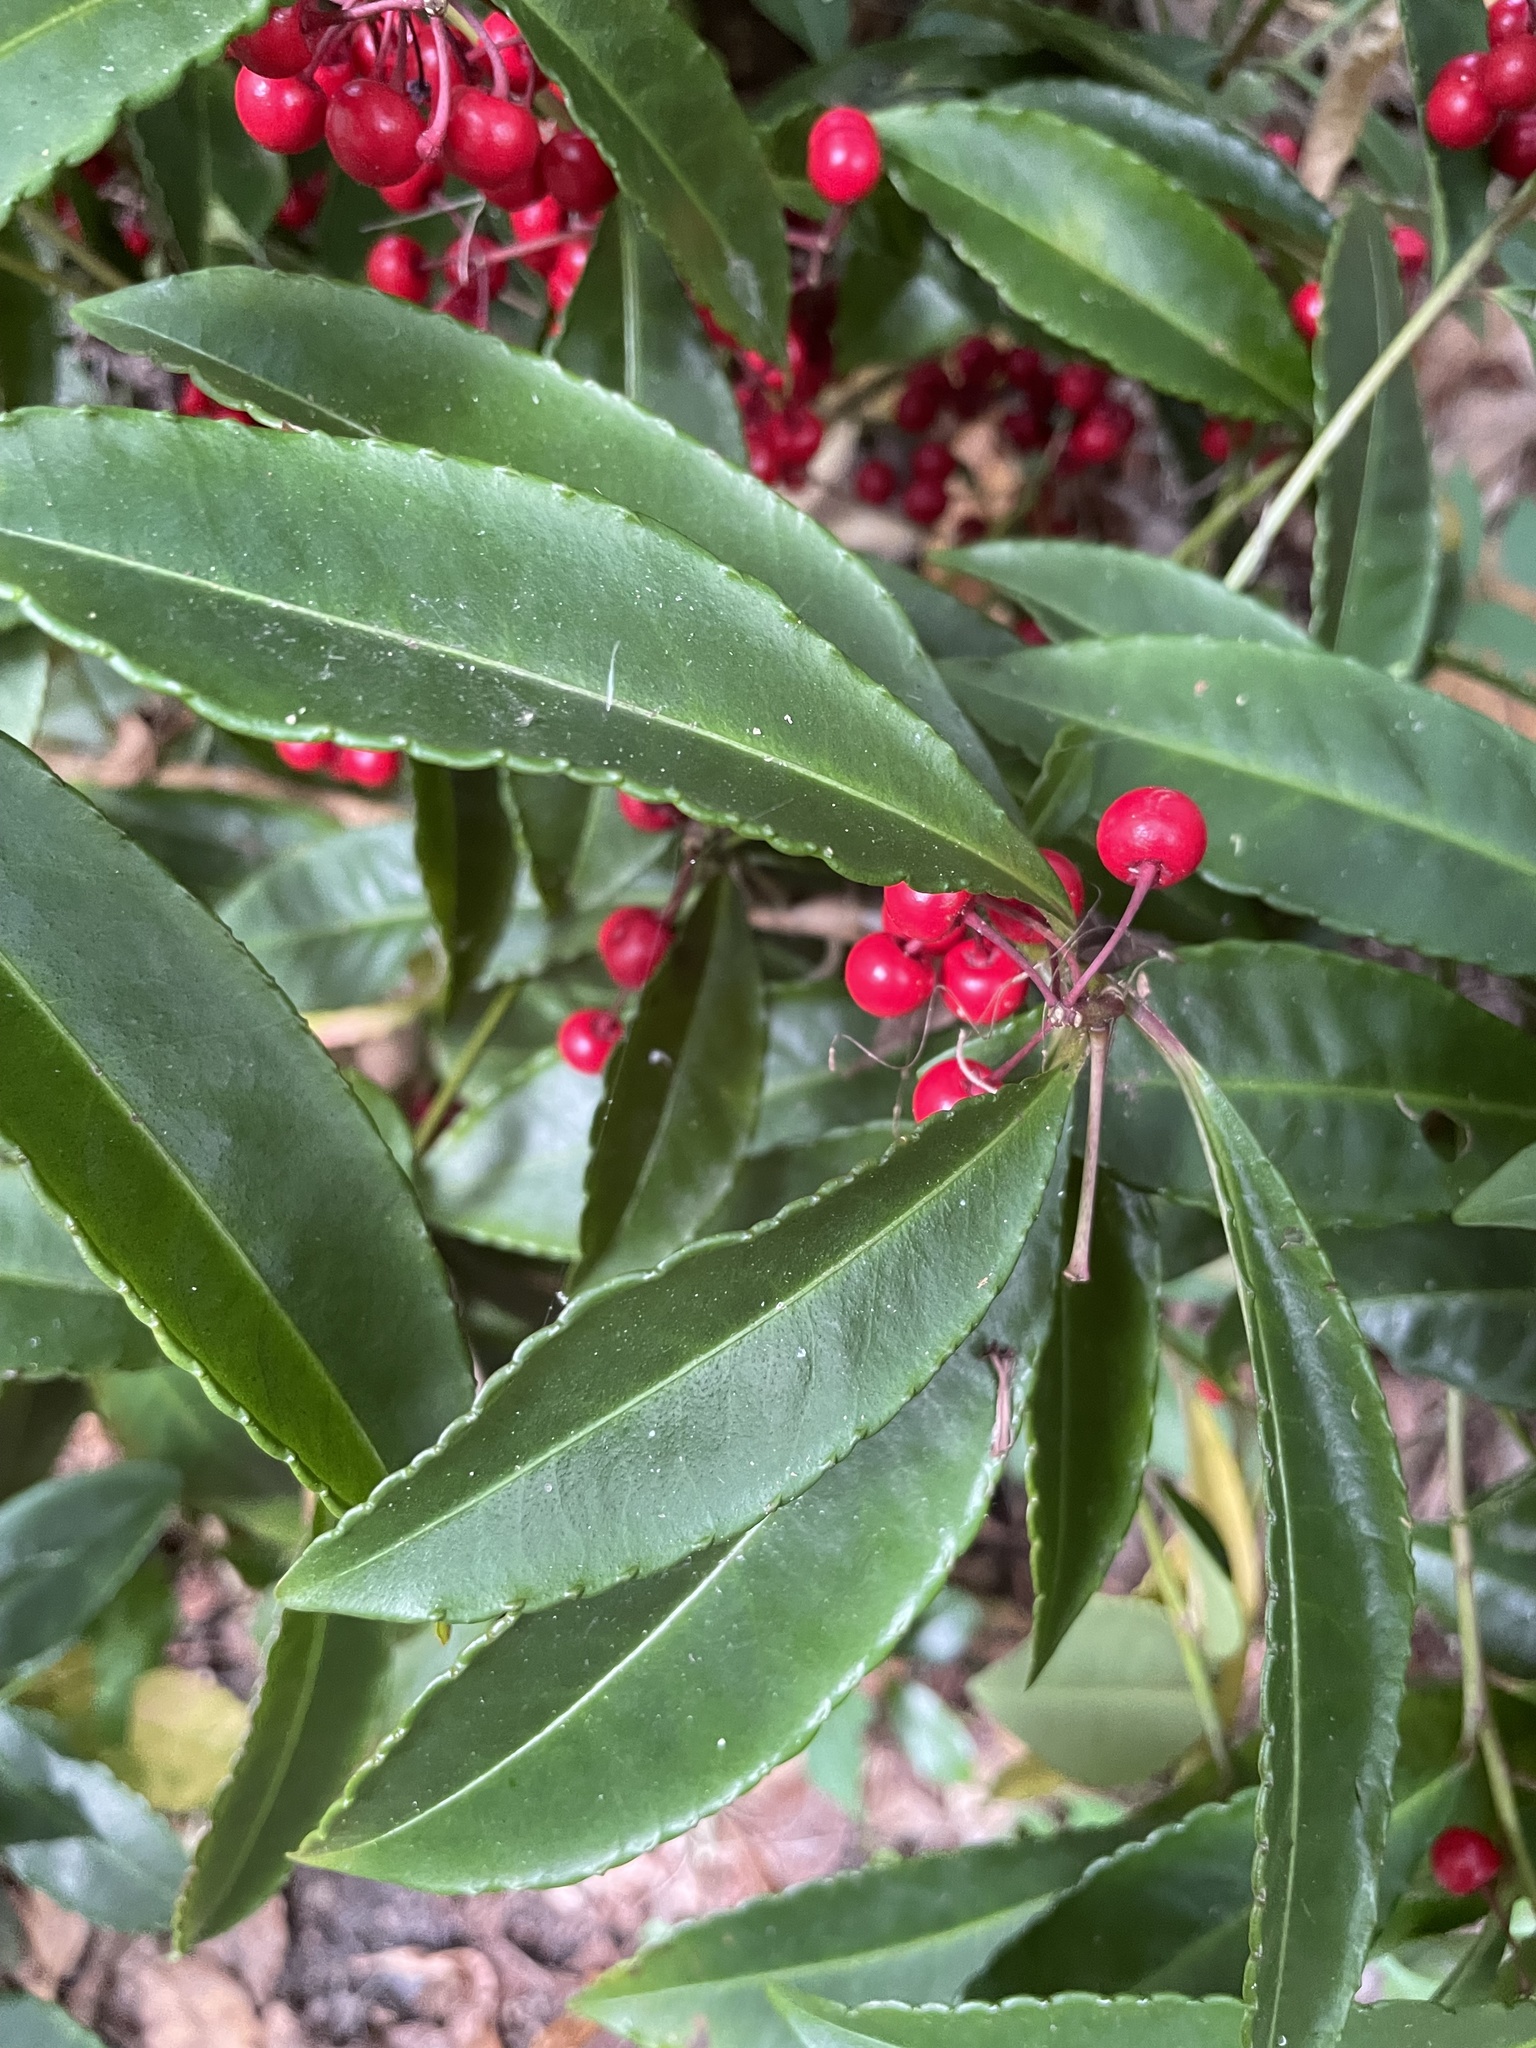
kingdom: Plantae
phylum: Tracheophyta
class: Magnoliopsida
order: Ericales
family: Primulaceae
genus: Ardisia
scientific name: Ardisia crenata
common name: Hen's eyes
